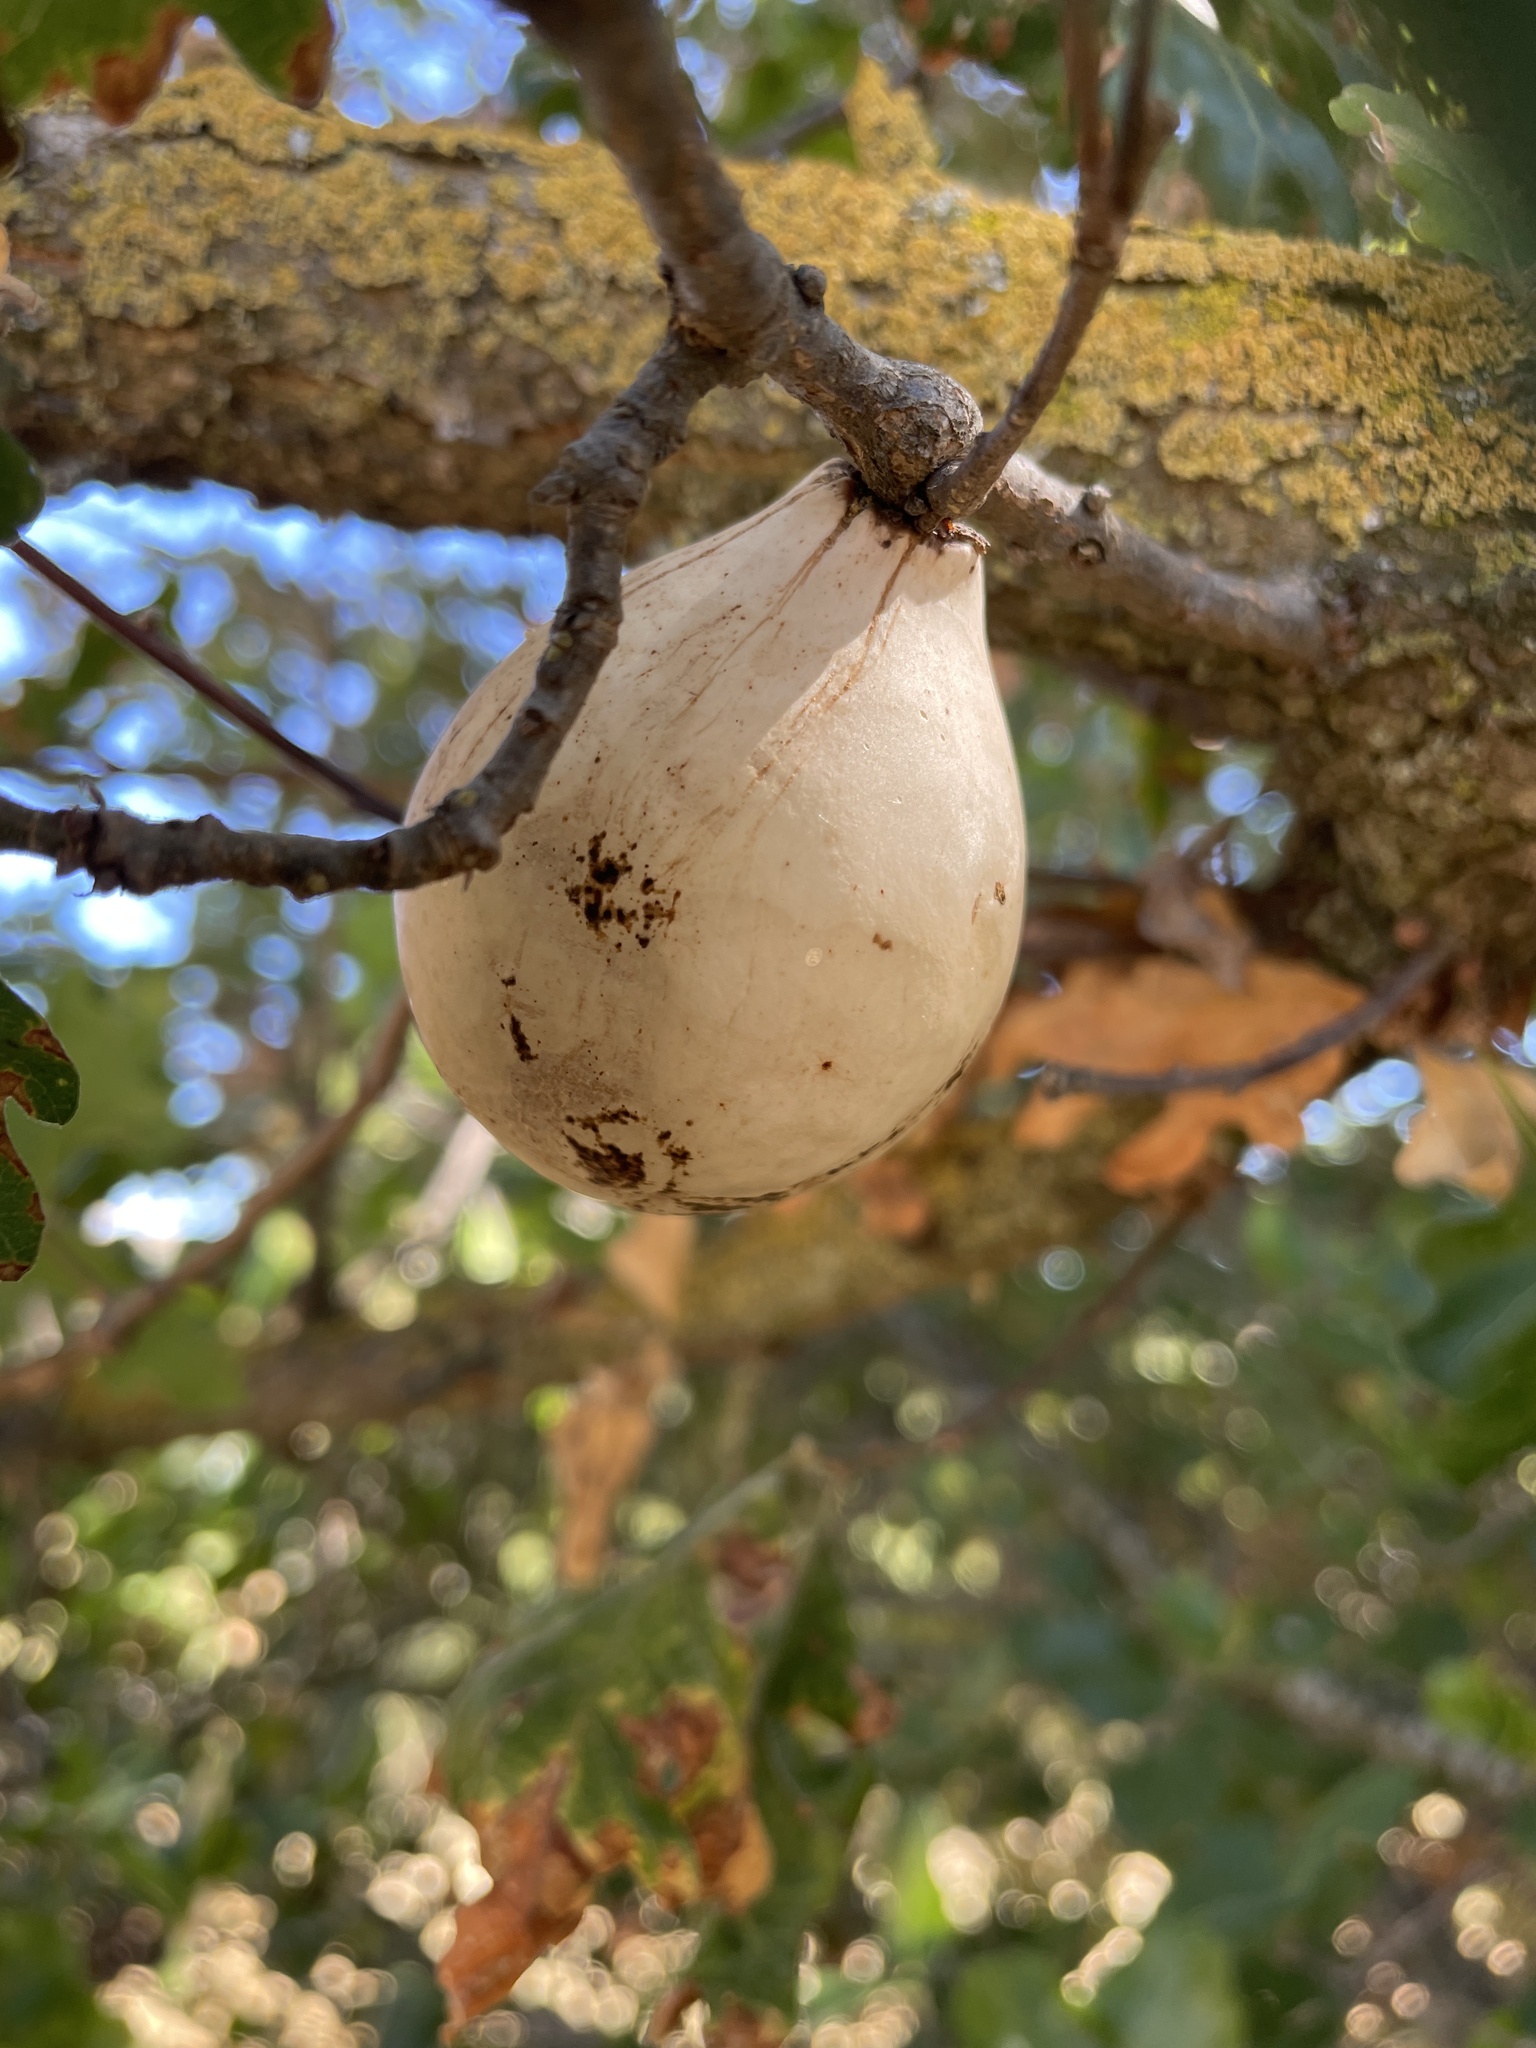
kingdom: Animalia
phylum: Arthropoda
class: Insecta
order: Hymenoptera
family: Cynipidae
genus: Andricus
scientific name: Andricus quercuscalifornicus
